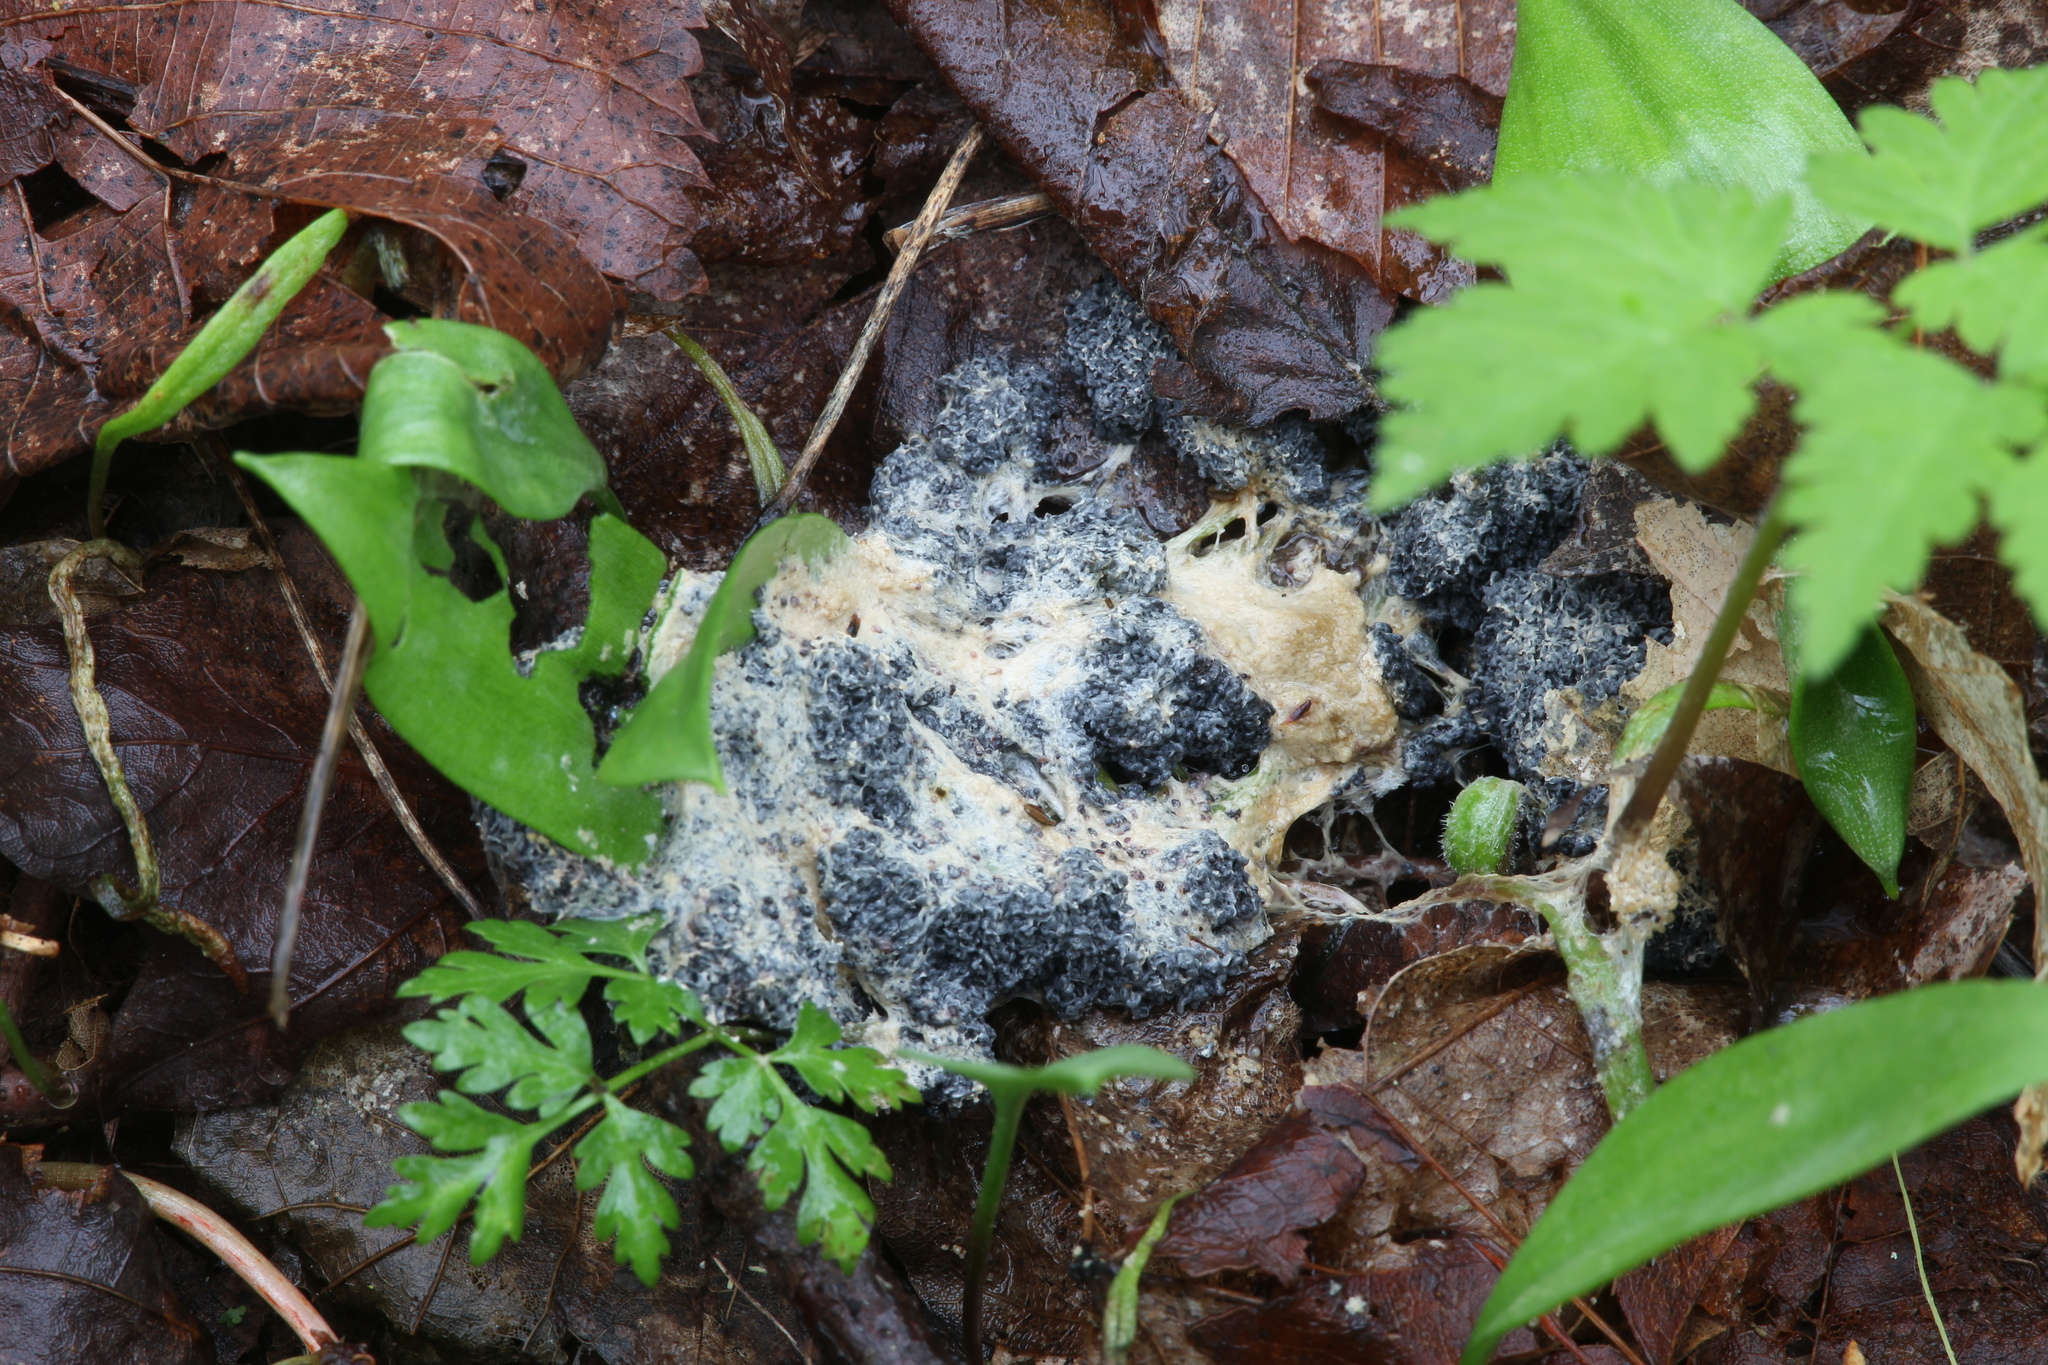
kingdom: Protozoa
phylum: Mycetozoa
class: Myxomycetes
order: Physarales
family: Physaraceae
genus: Fuligo
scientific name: Fuligo intermedia
